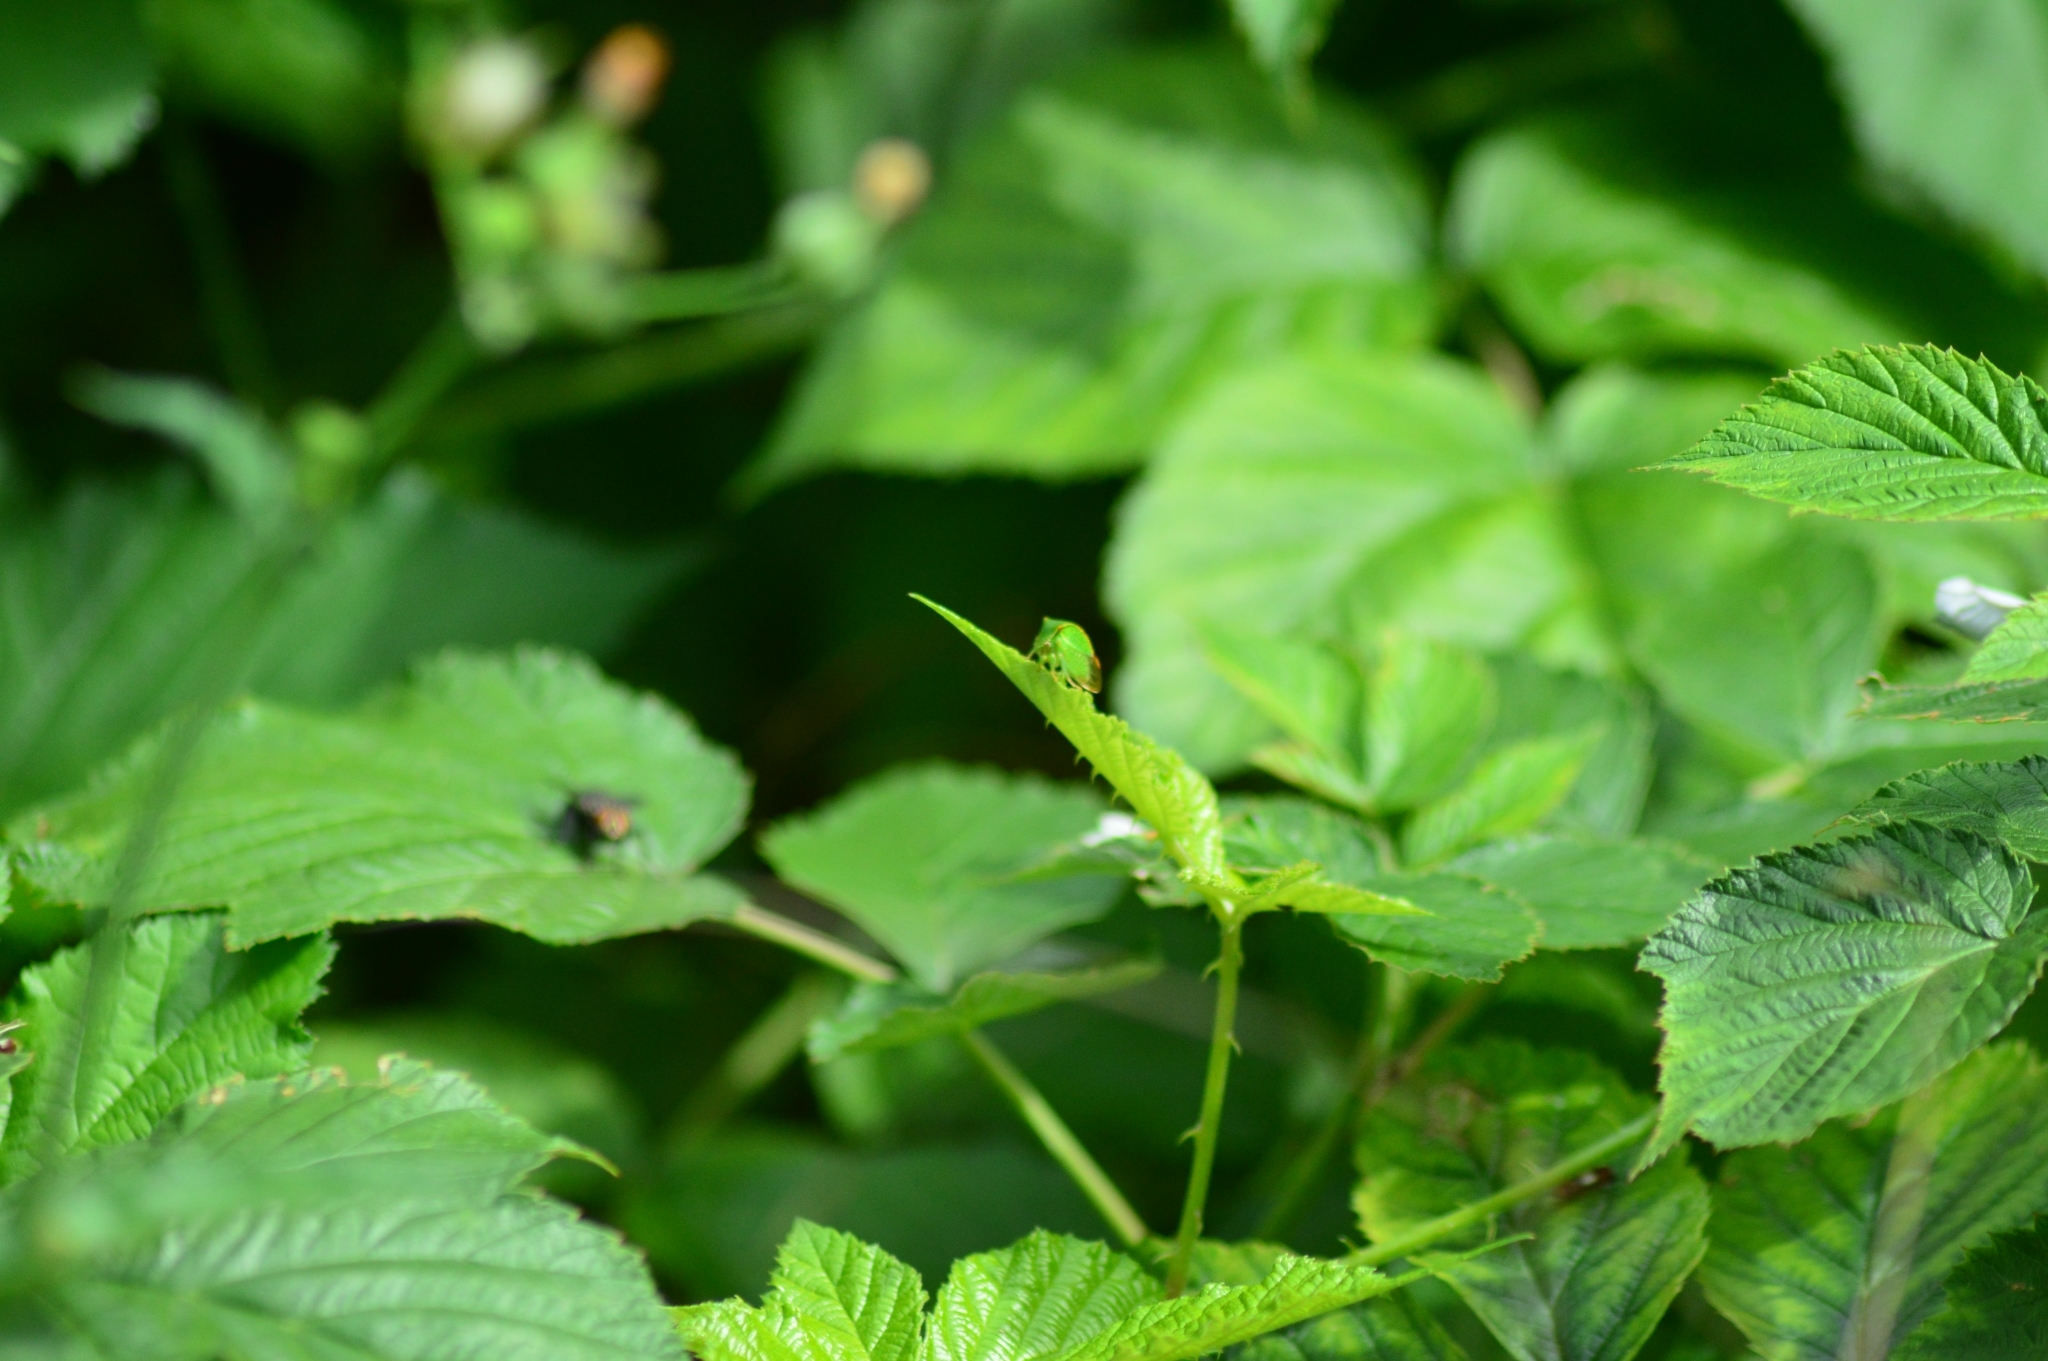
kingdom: Animalia
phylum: Arthropoda
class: Insecta
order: Hemiptera
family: Membracidae
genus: Stictocephala
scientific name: Stictocephala bisonia
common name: American buffalo treehopper
